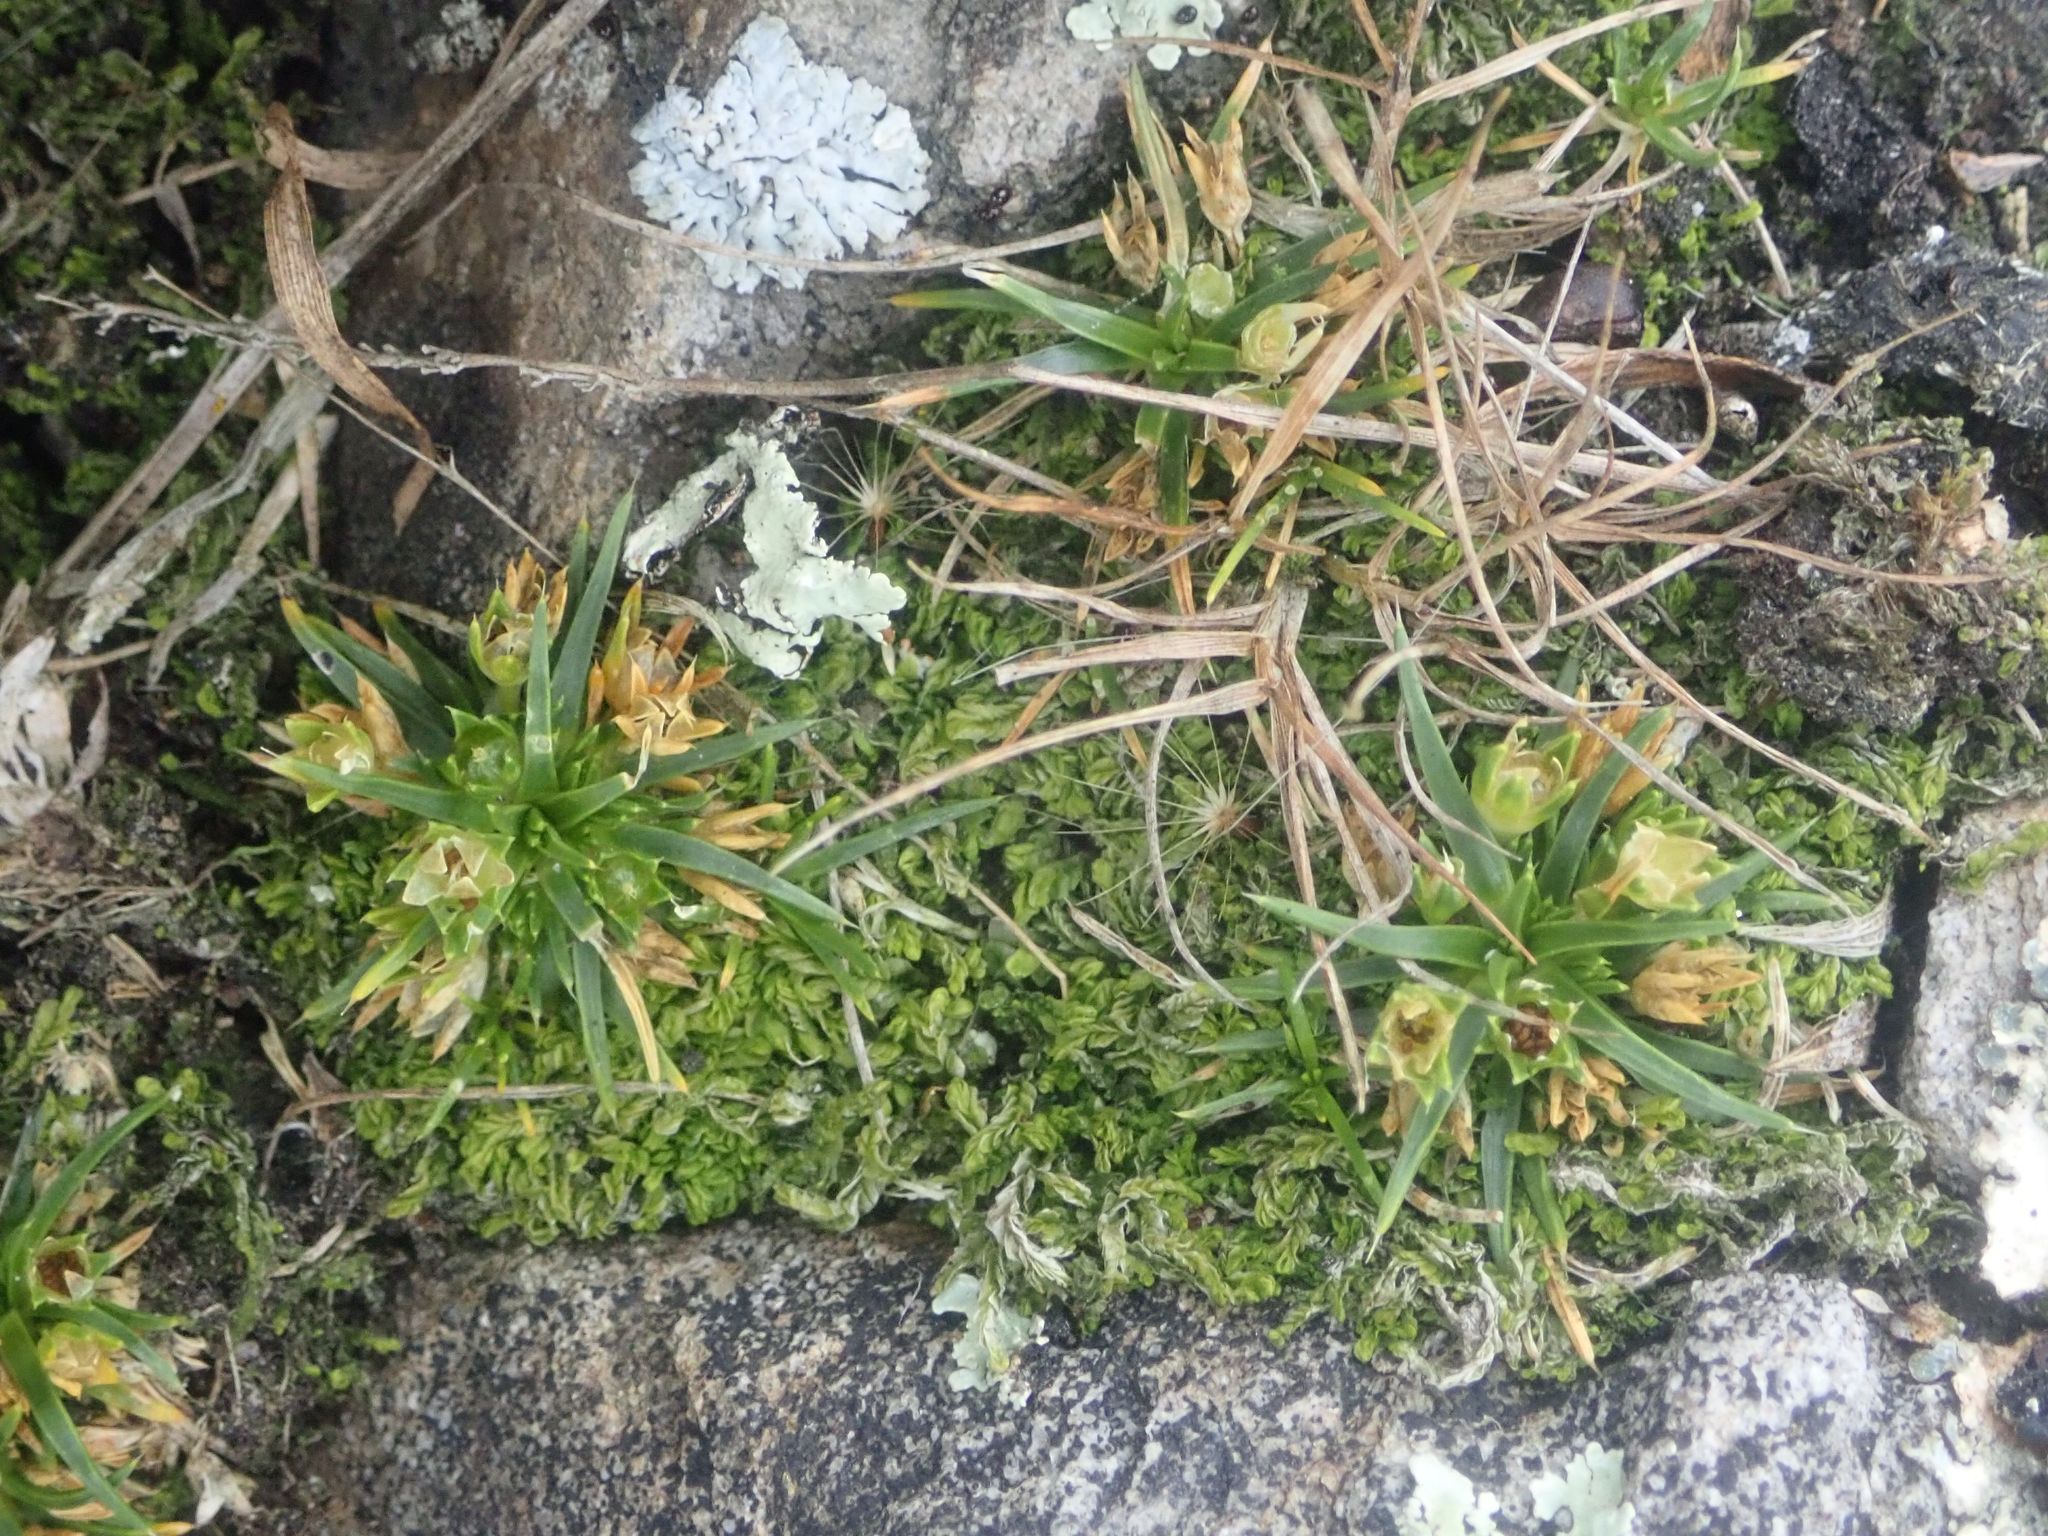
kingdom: Plantae
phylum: Tracheophyta
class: Magnoliopsida
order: Caryophyllales
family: Caryophyllaceae
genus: Colobanthus
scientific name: Colobanthus muelleri
